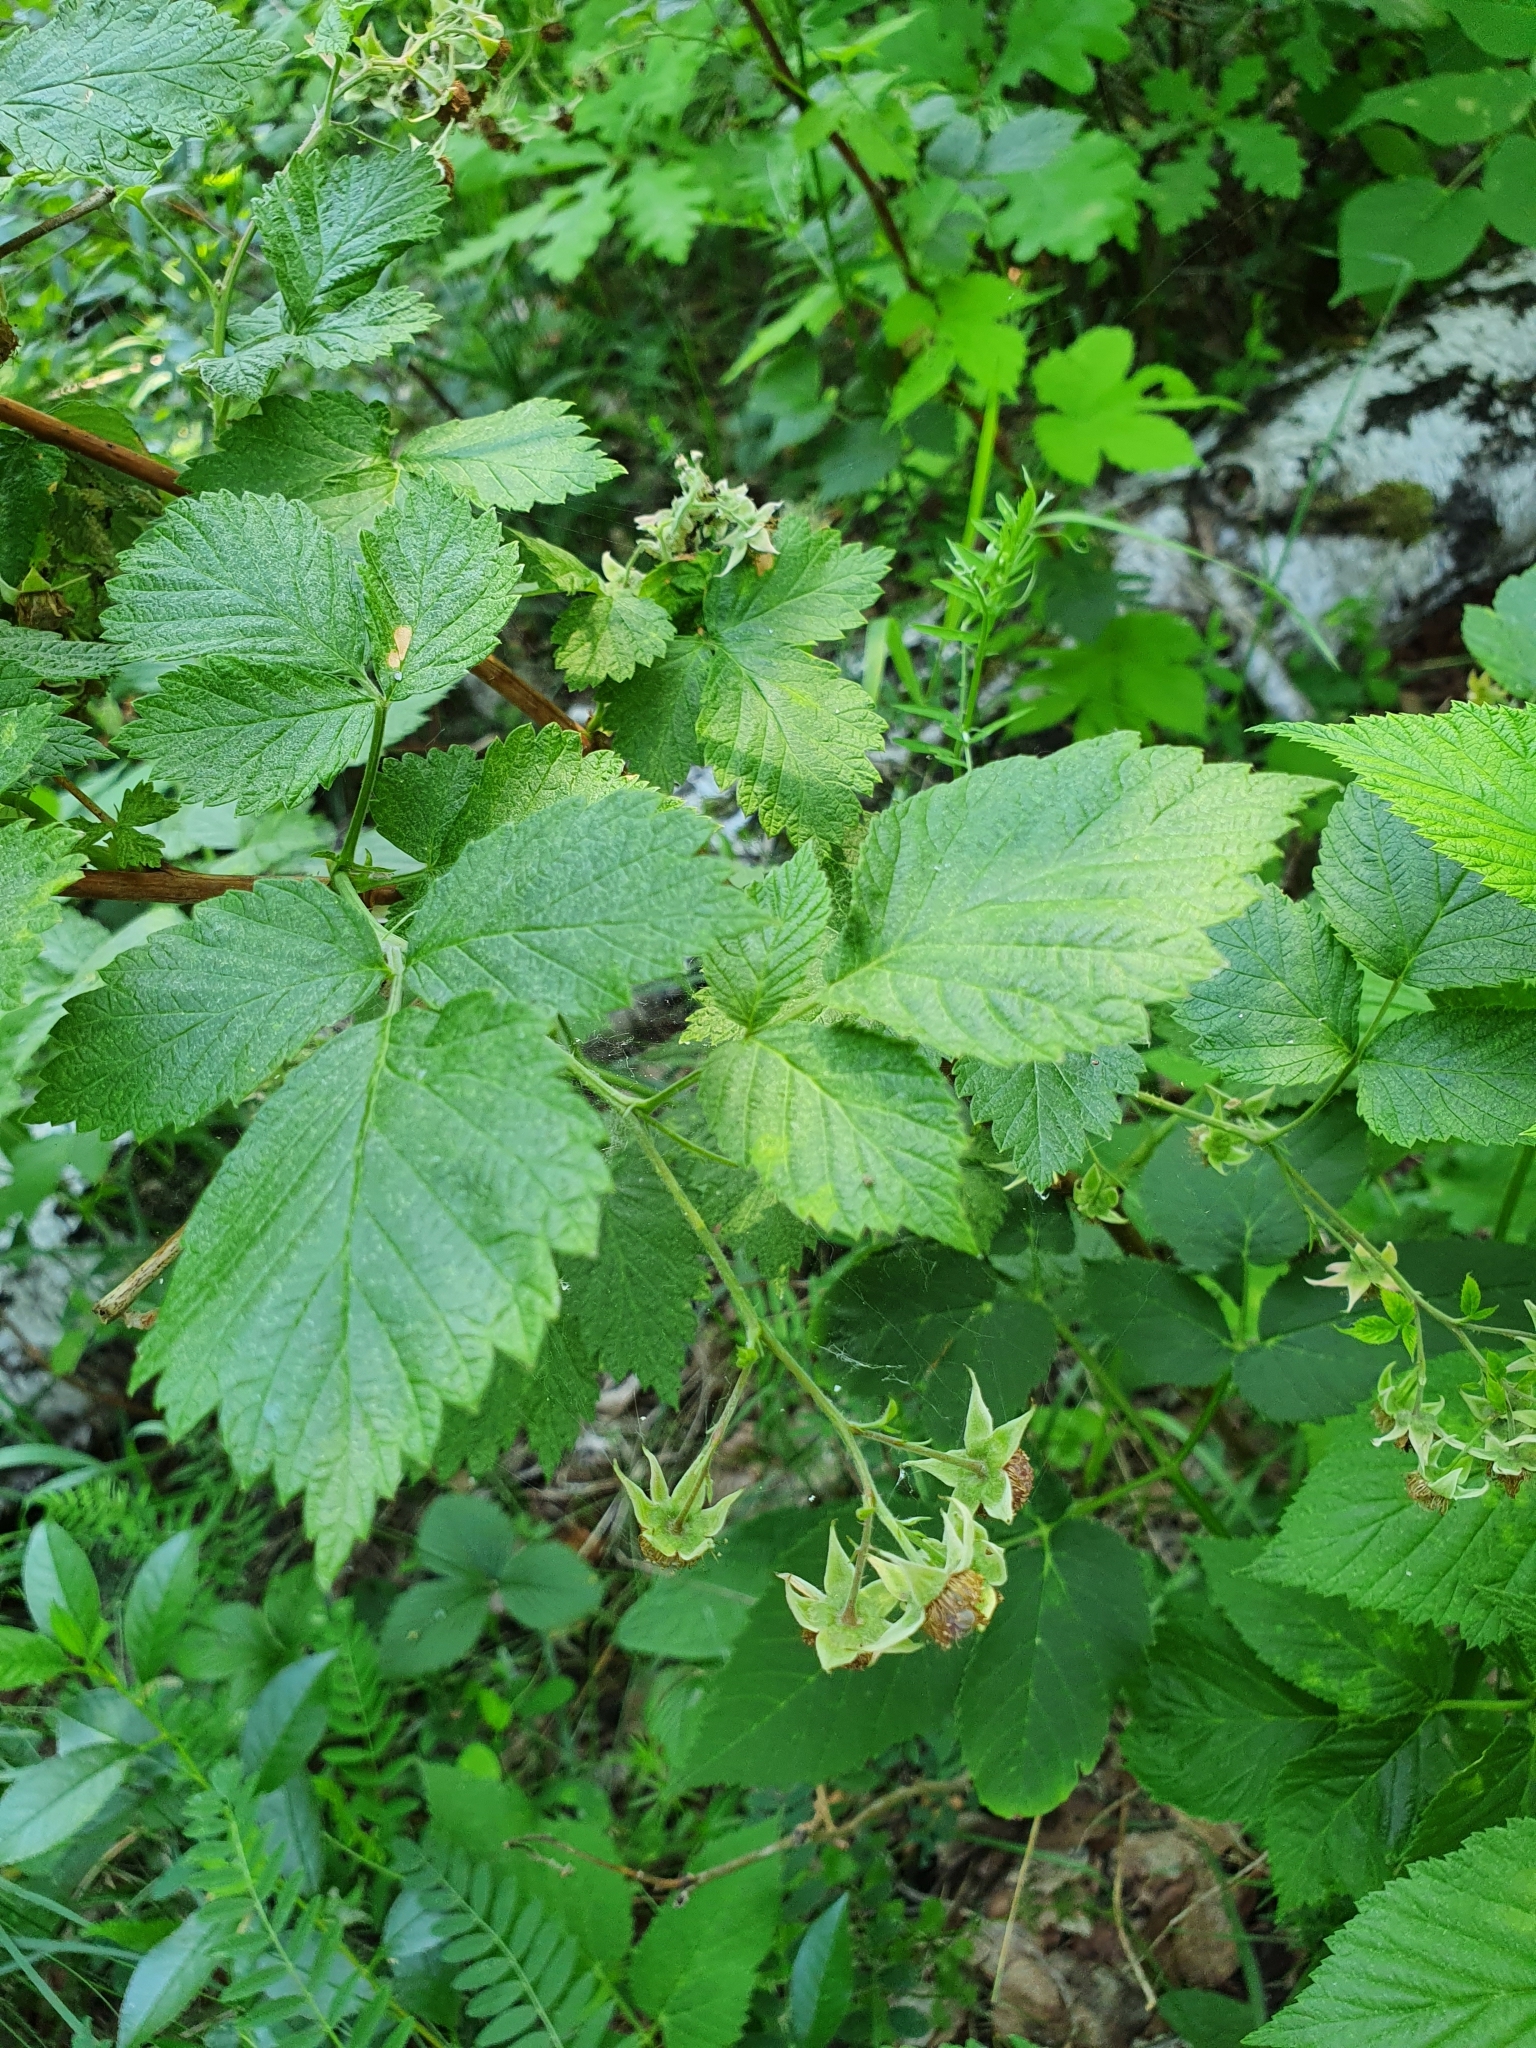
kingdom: Plantae
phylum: Tracheophyta
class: Magnoliopsida
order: Rosales
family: Rosaceae
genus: Rubus
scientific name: Rubus idaeus
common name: Raspberry
